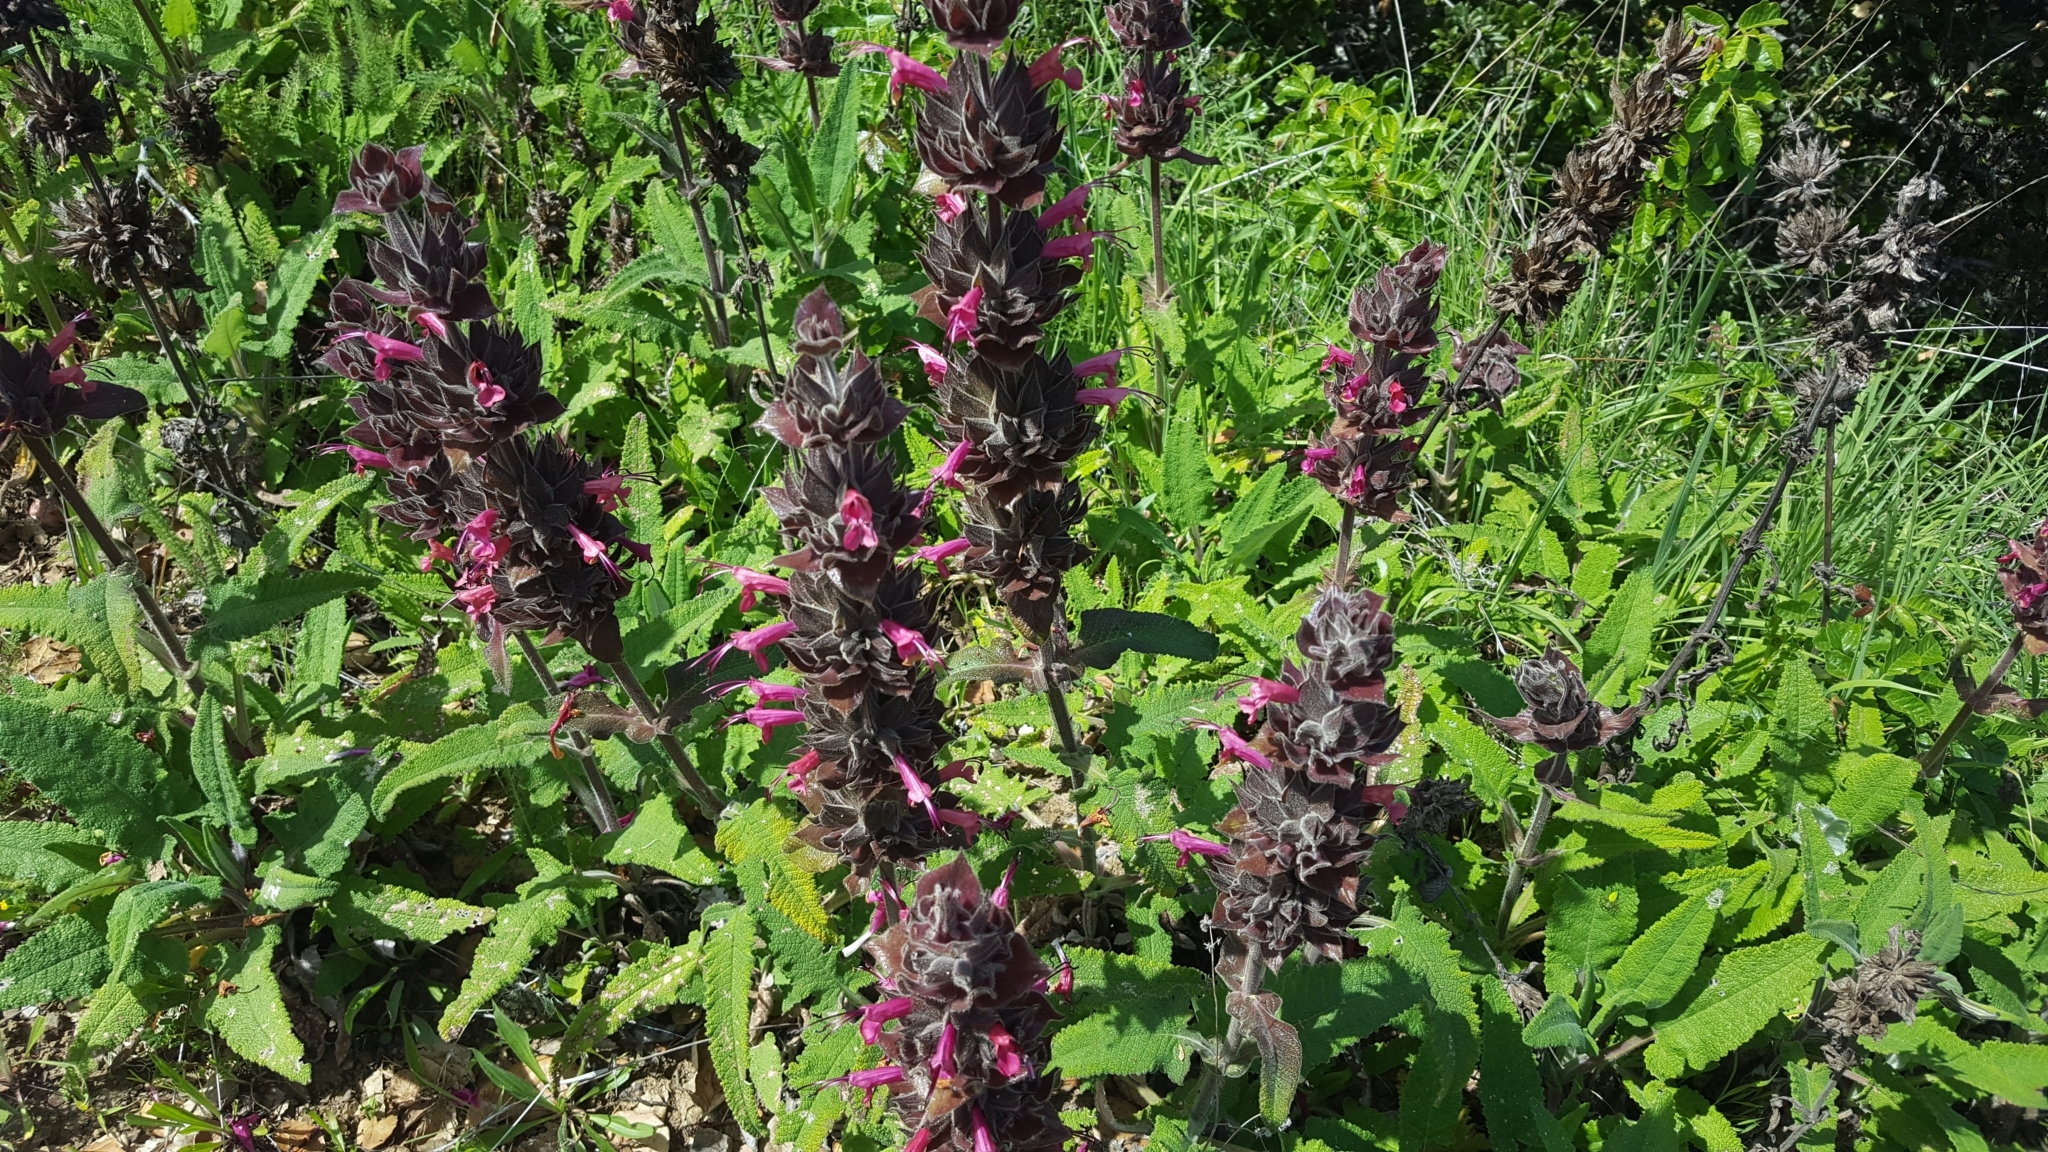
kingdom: Plantae
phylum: Tracheophyta
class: Magnoliopsida
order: Lamiales
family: Lamiaceae
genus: Salvia
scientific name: Salvia spathacea
